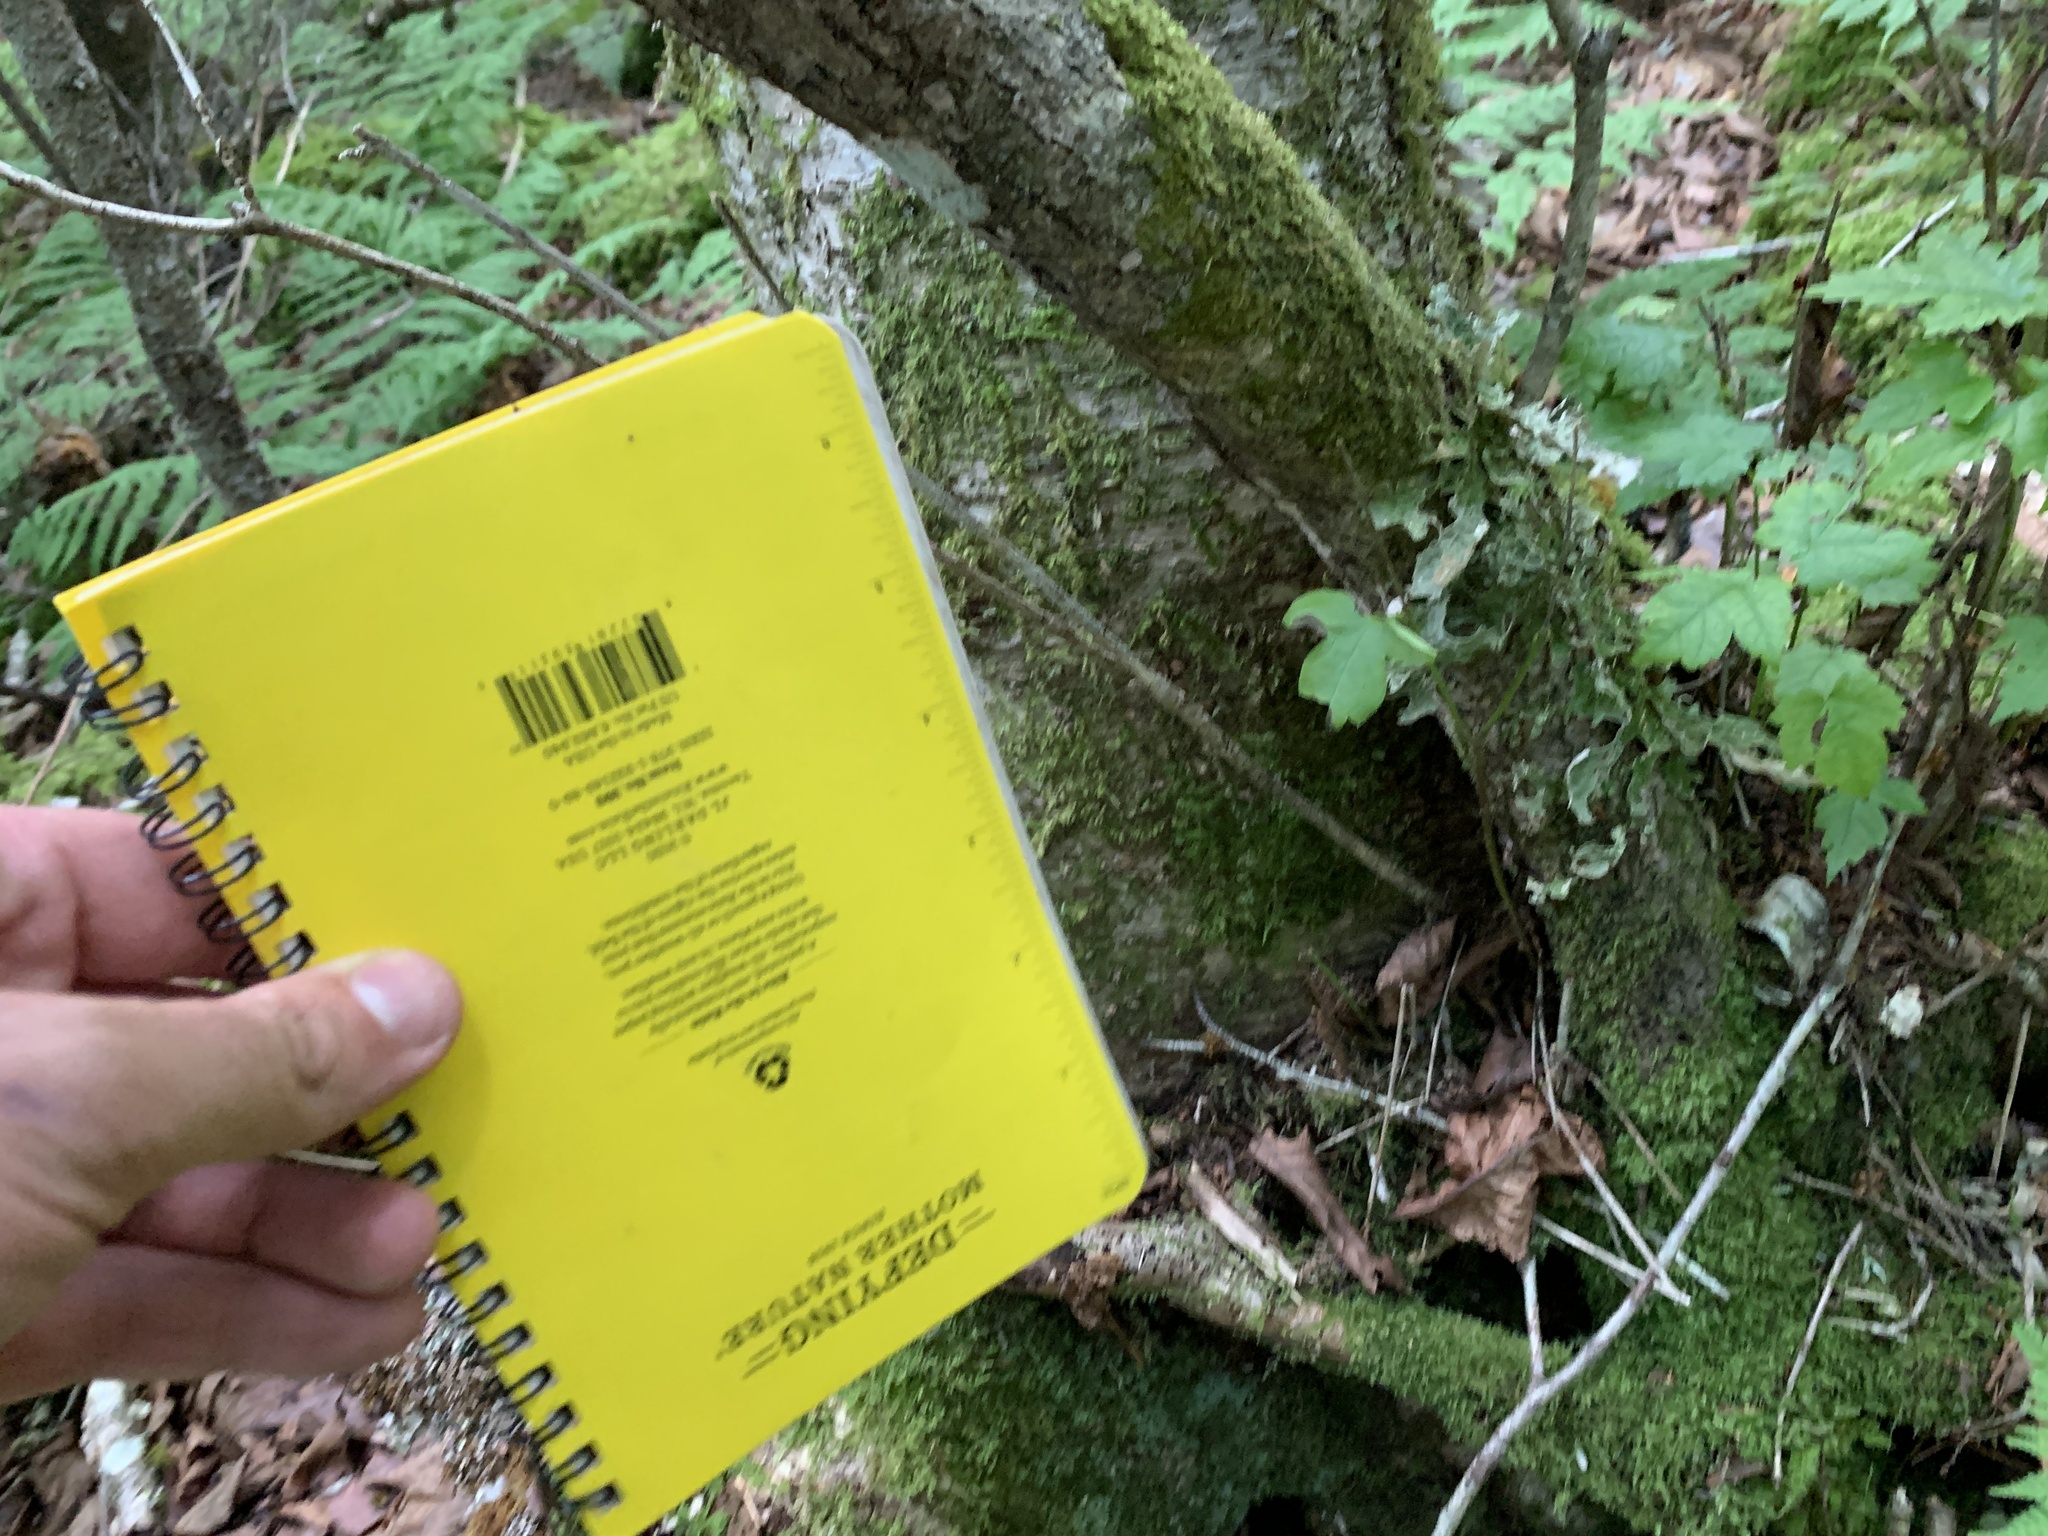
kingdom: Plantae
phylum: Tracheophyta
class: Magnoliopsida
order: Sapindales
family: Sapindaceae
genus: Acer
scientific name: Acer spicatum
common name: Mountain maple
